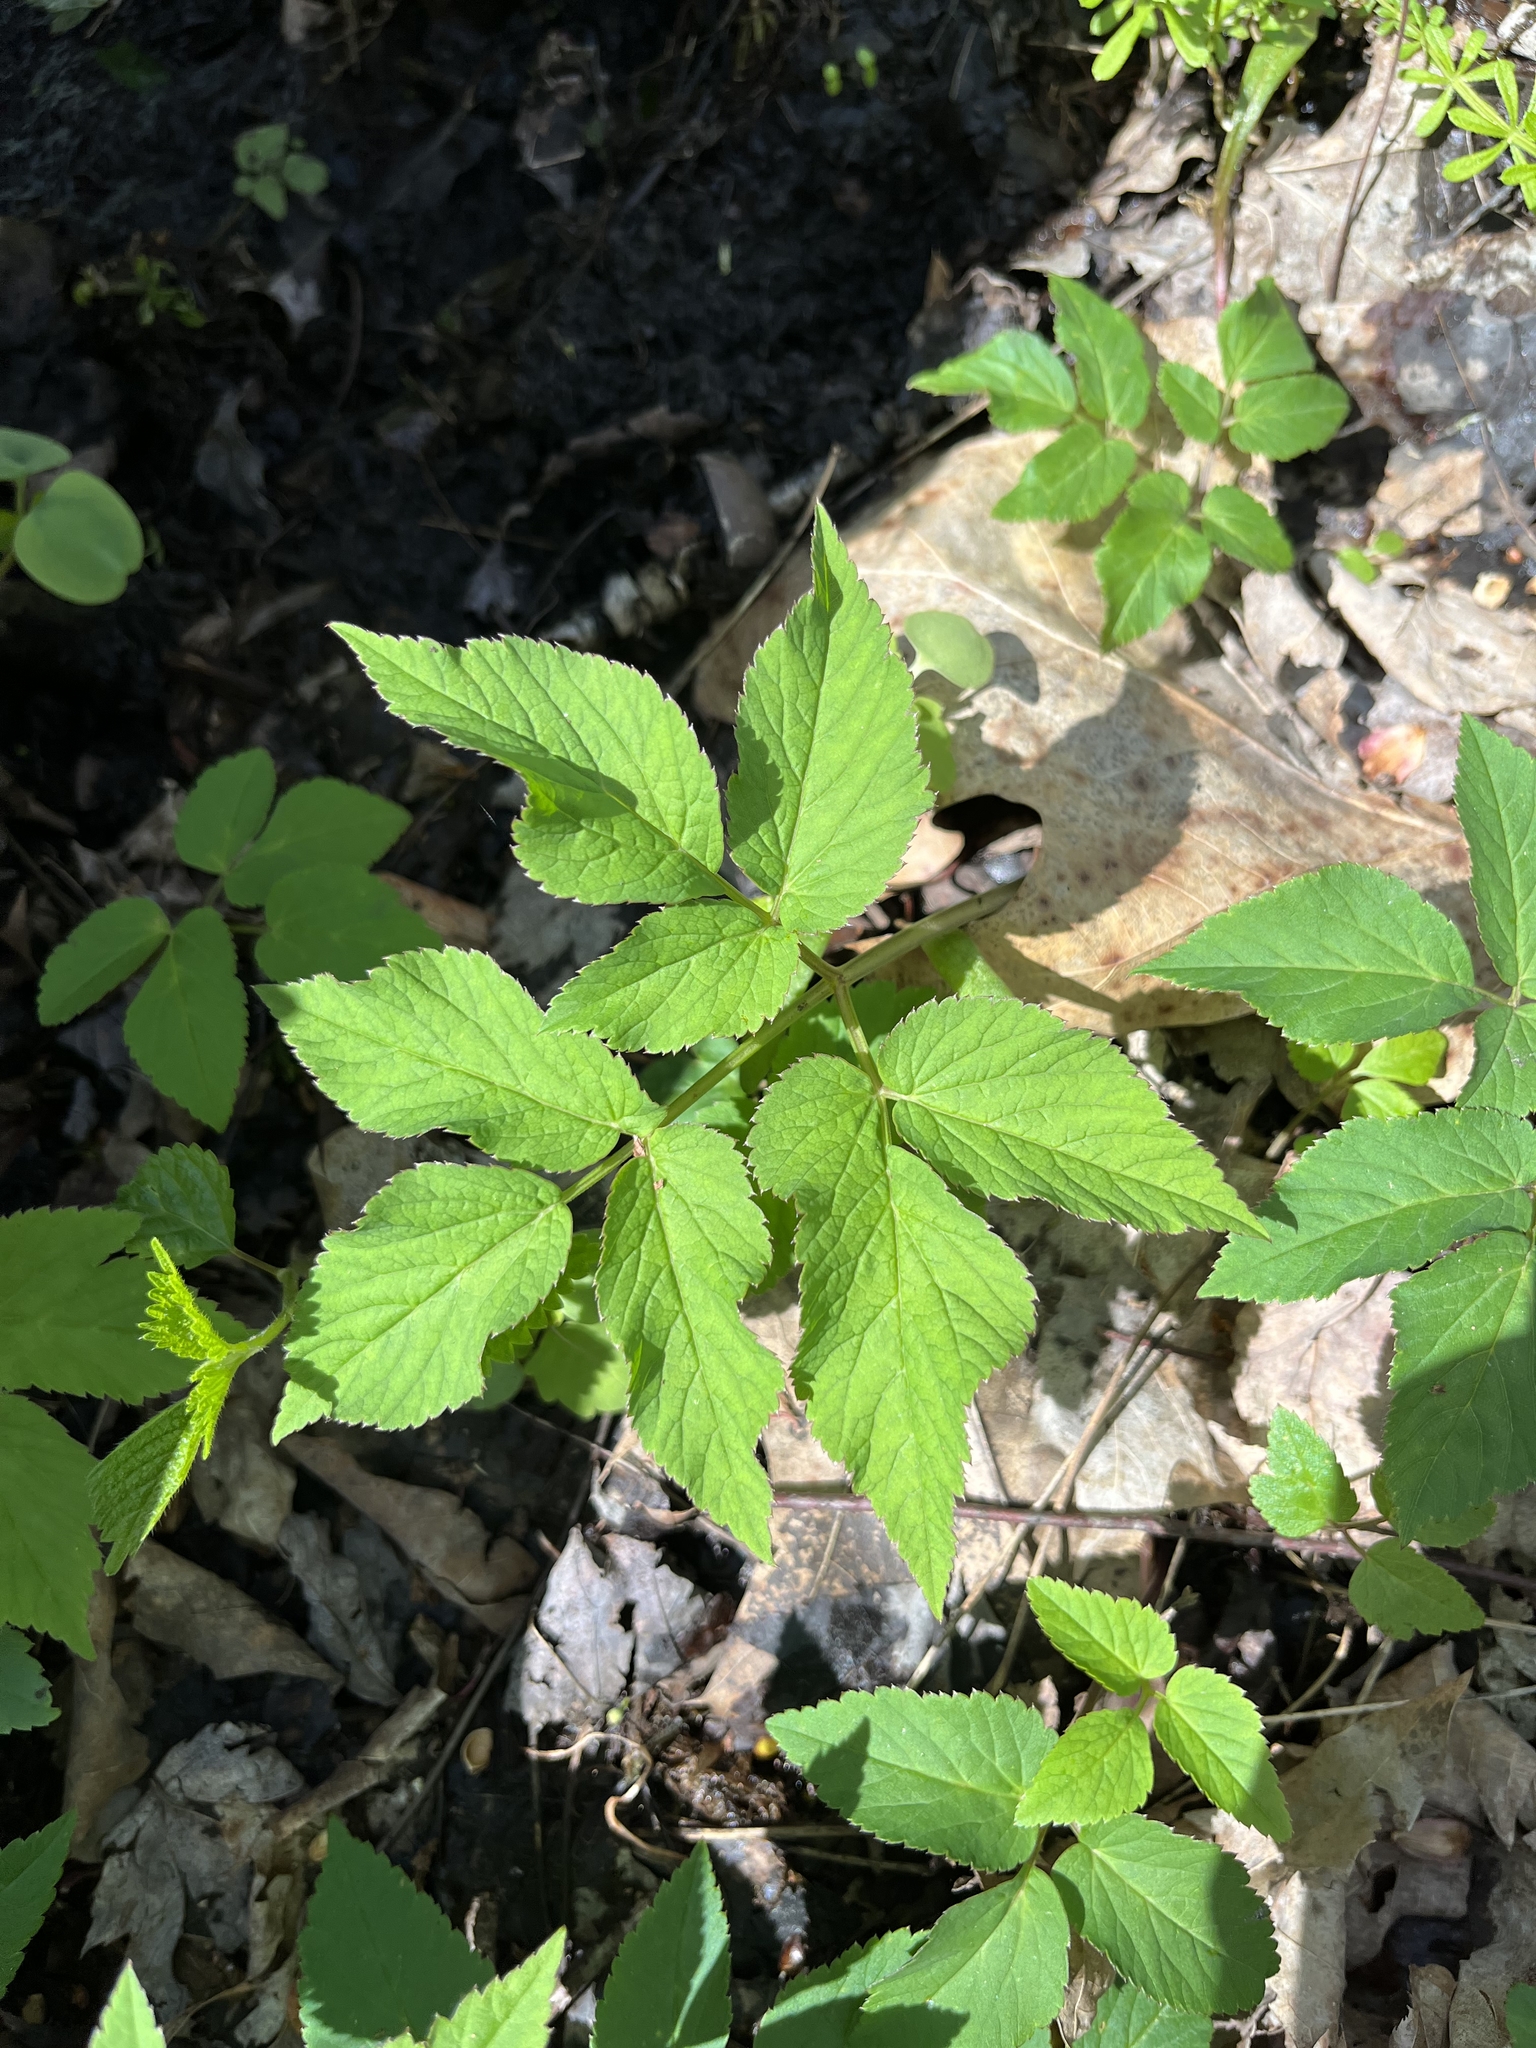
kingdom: Plantae
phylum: Tracheophyta
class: Magnoliopsida
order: Apiales
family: Apiaceae
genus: Aegopodium
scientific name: Aegopodium podagraria
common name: Ground-elder
